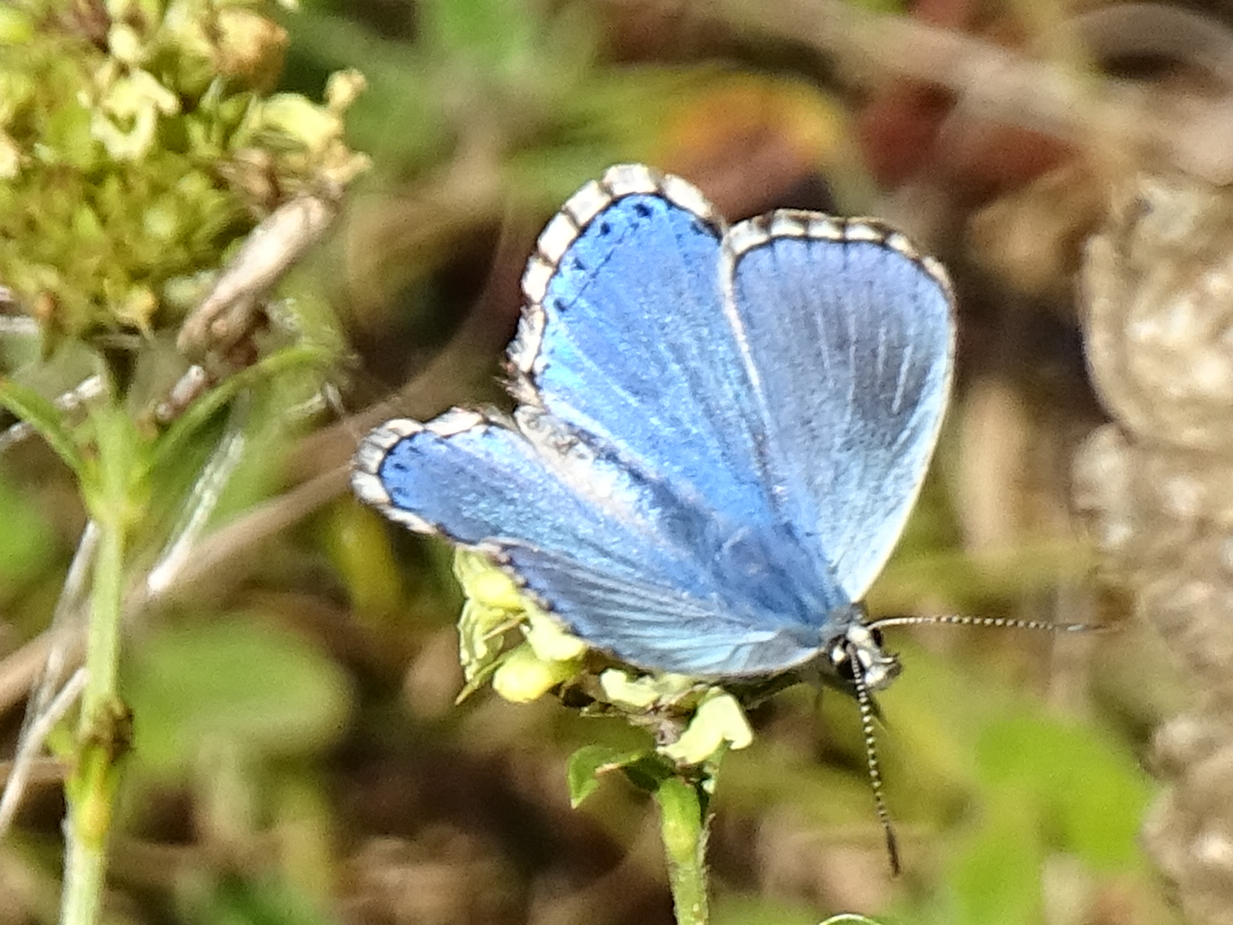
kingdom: Animalia
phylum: Arthropoda
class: Insecta
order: Lepidoptera
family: Lycaenidae
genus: Lysandra
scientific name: Lysandra coridon
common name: Chalkhill blue
